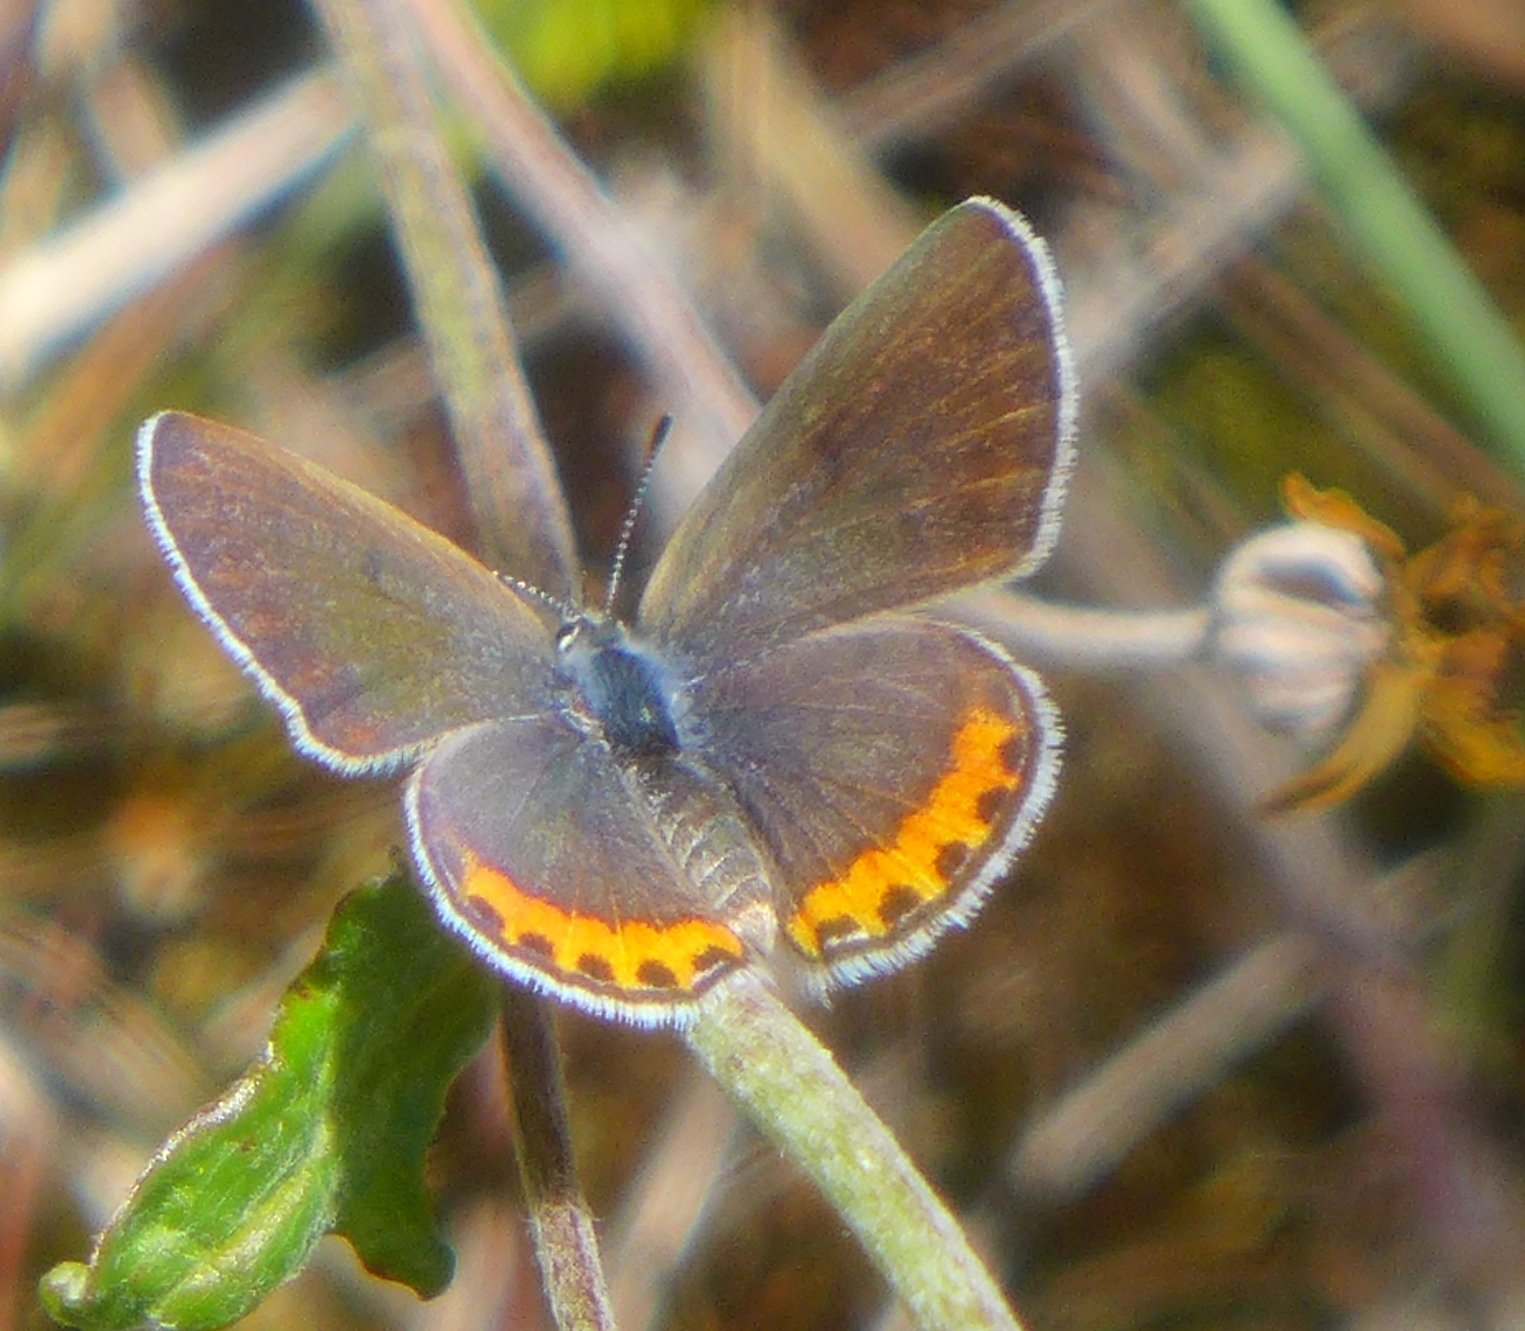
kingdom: Animalia
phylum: Arthropoda
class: Insecta
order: Lepidoptera
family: Lycaenidae
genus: Icaricia
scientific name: Icaricia acmon
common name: Acmon blue
